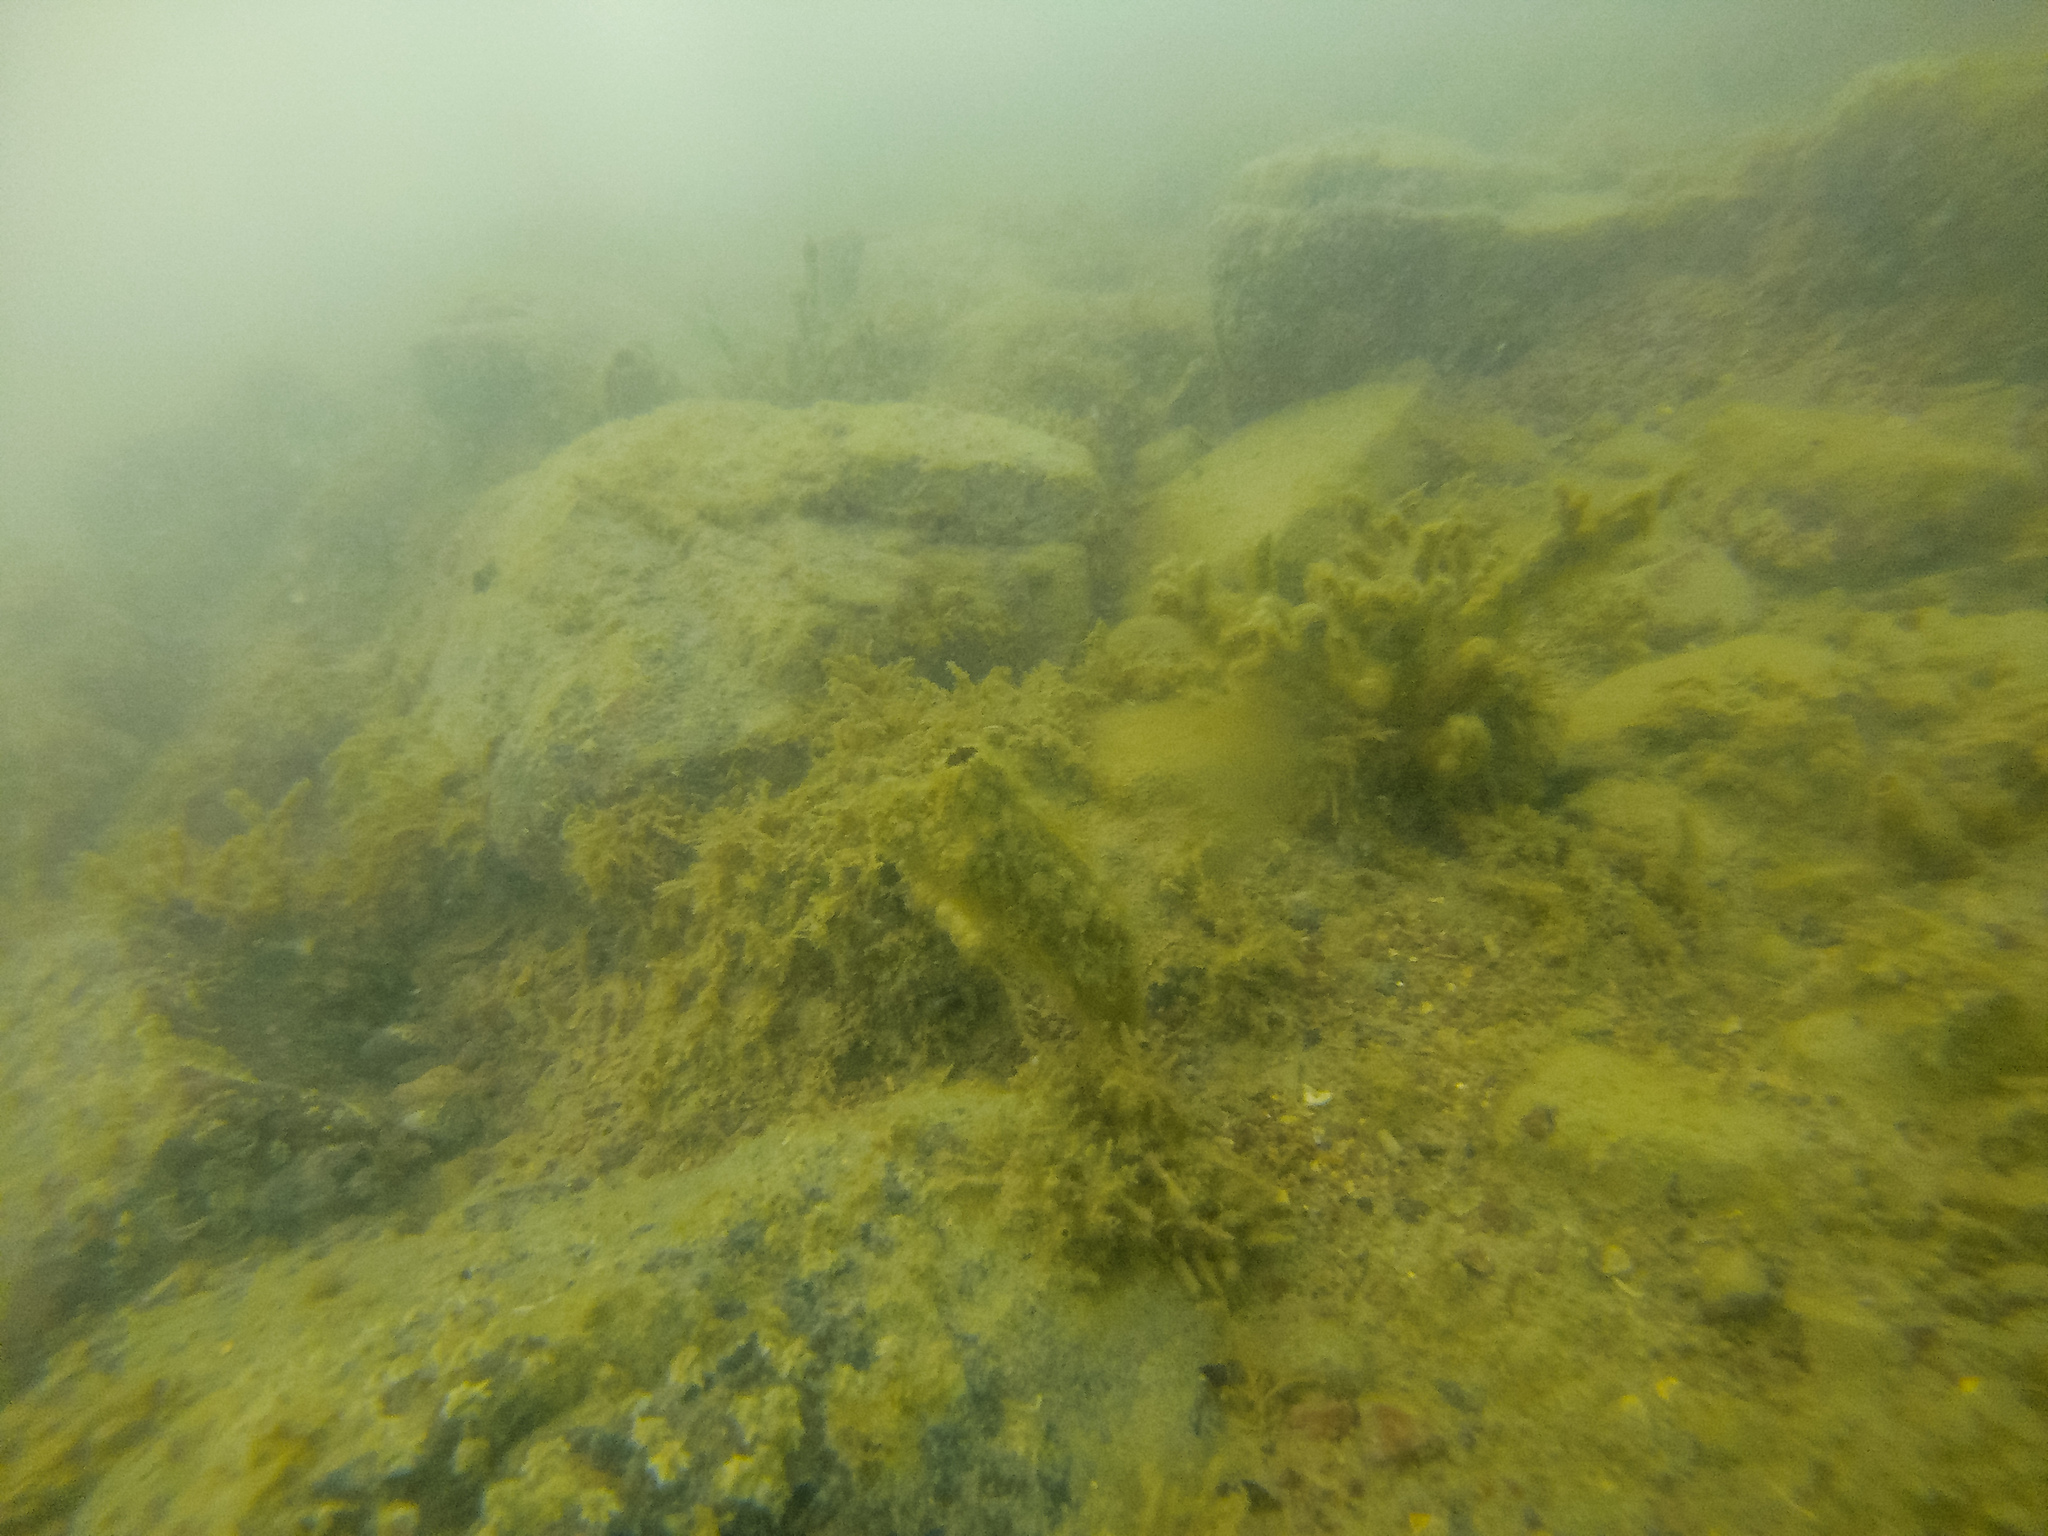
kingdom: Animalia
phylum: Chordata
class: Ascidiacea
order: Stolidobranchia
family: Styelidae
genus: Styela
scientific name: Styela clava
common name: Leathery sea squirt
